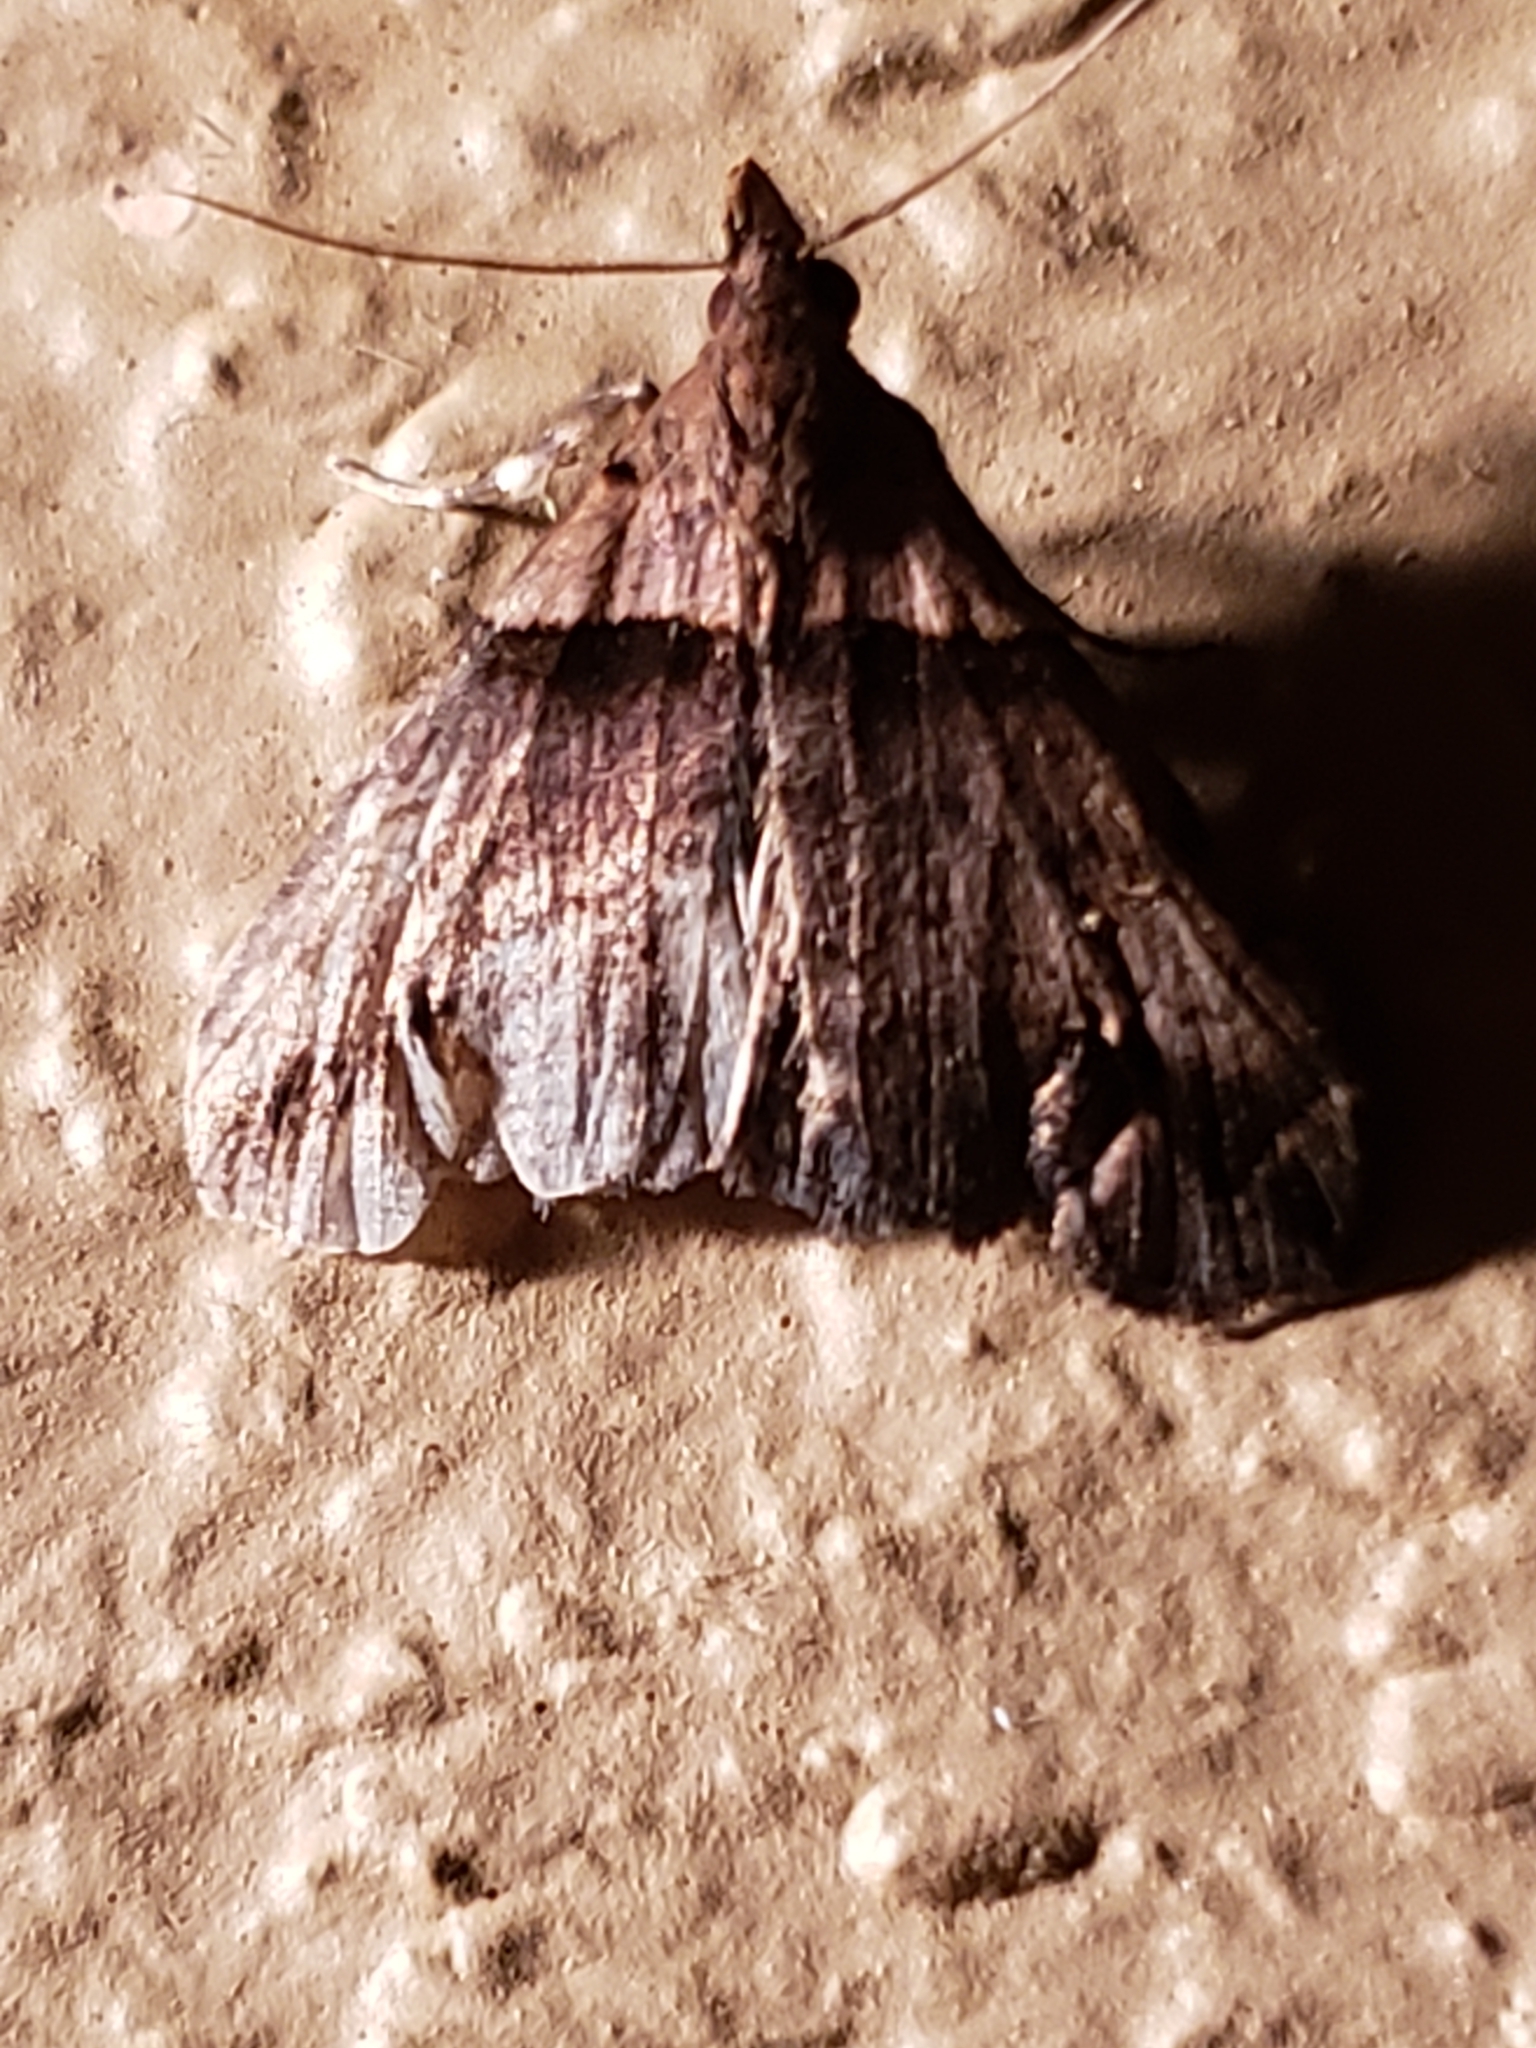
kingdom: Animalia
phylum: Arthropoda
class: Insecta
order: Lepidoptera
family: Erebidae
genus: Lascoria
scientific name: Lascoria ambigualis
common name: Ambiguous moth
